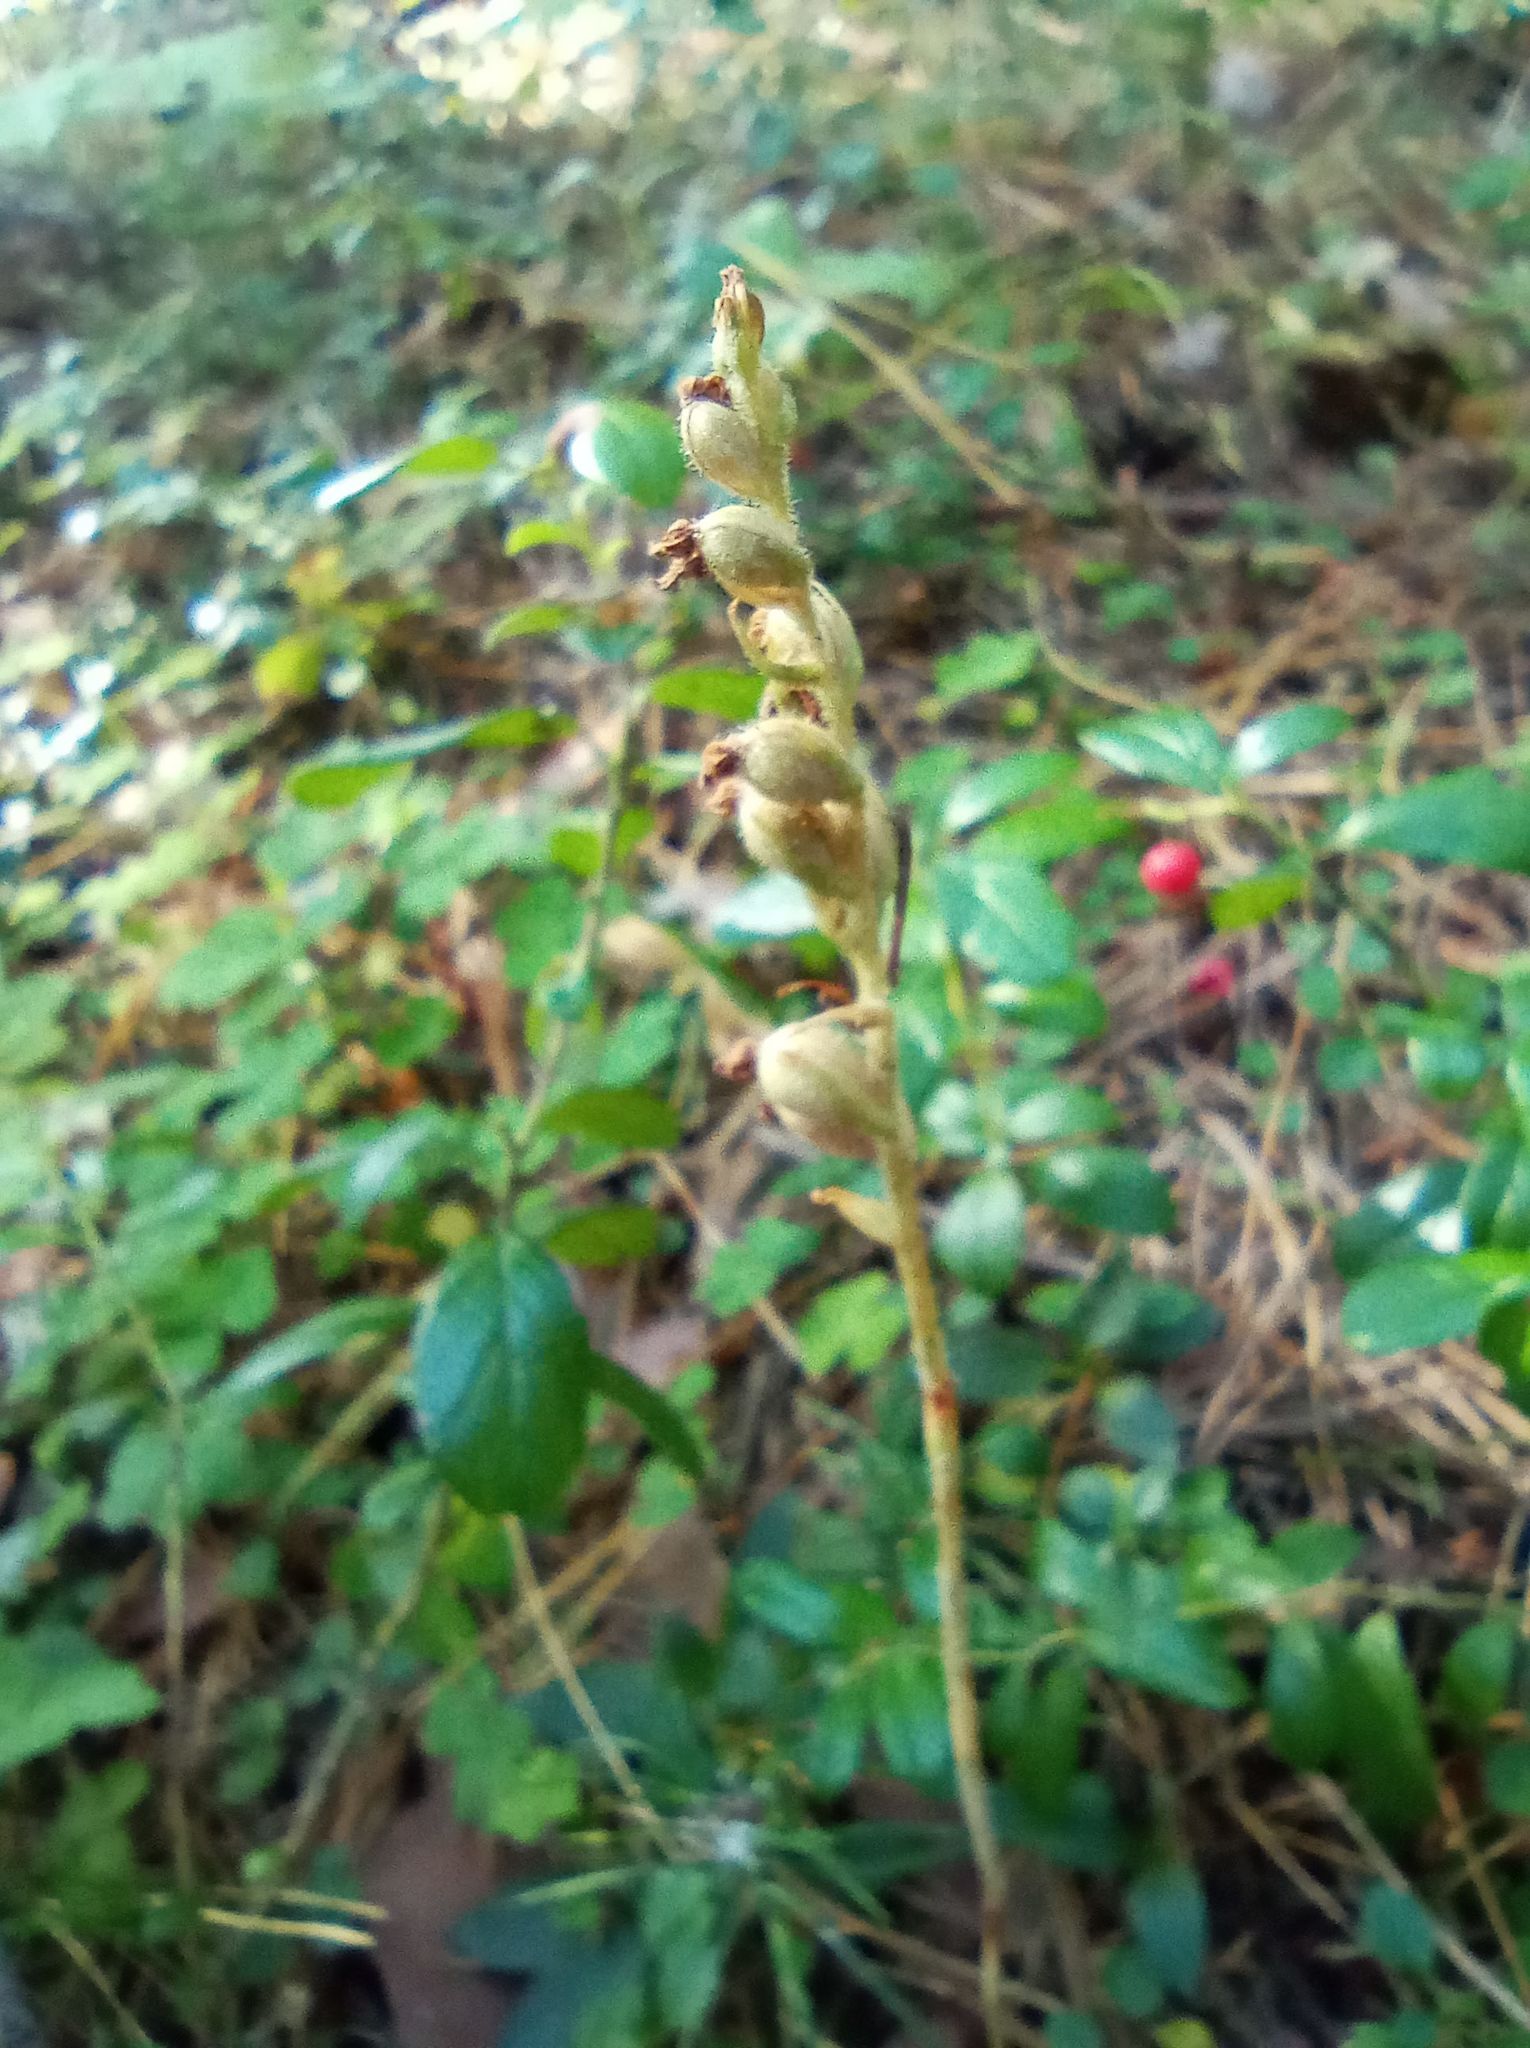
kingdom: Plantae
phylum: Tracheophyta
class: Liliopsida
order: Asparagales
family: Orchidaceae
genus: Goodyera
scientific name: Goodyera repens
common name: Creeping lady's-tresses
